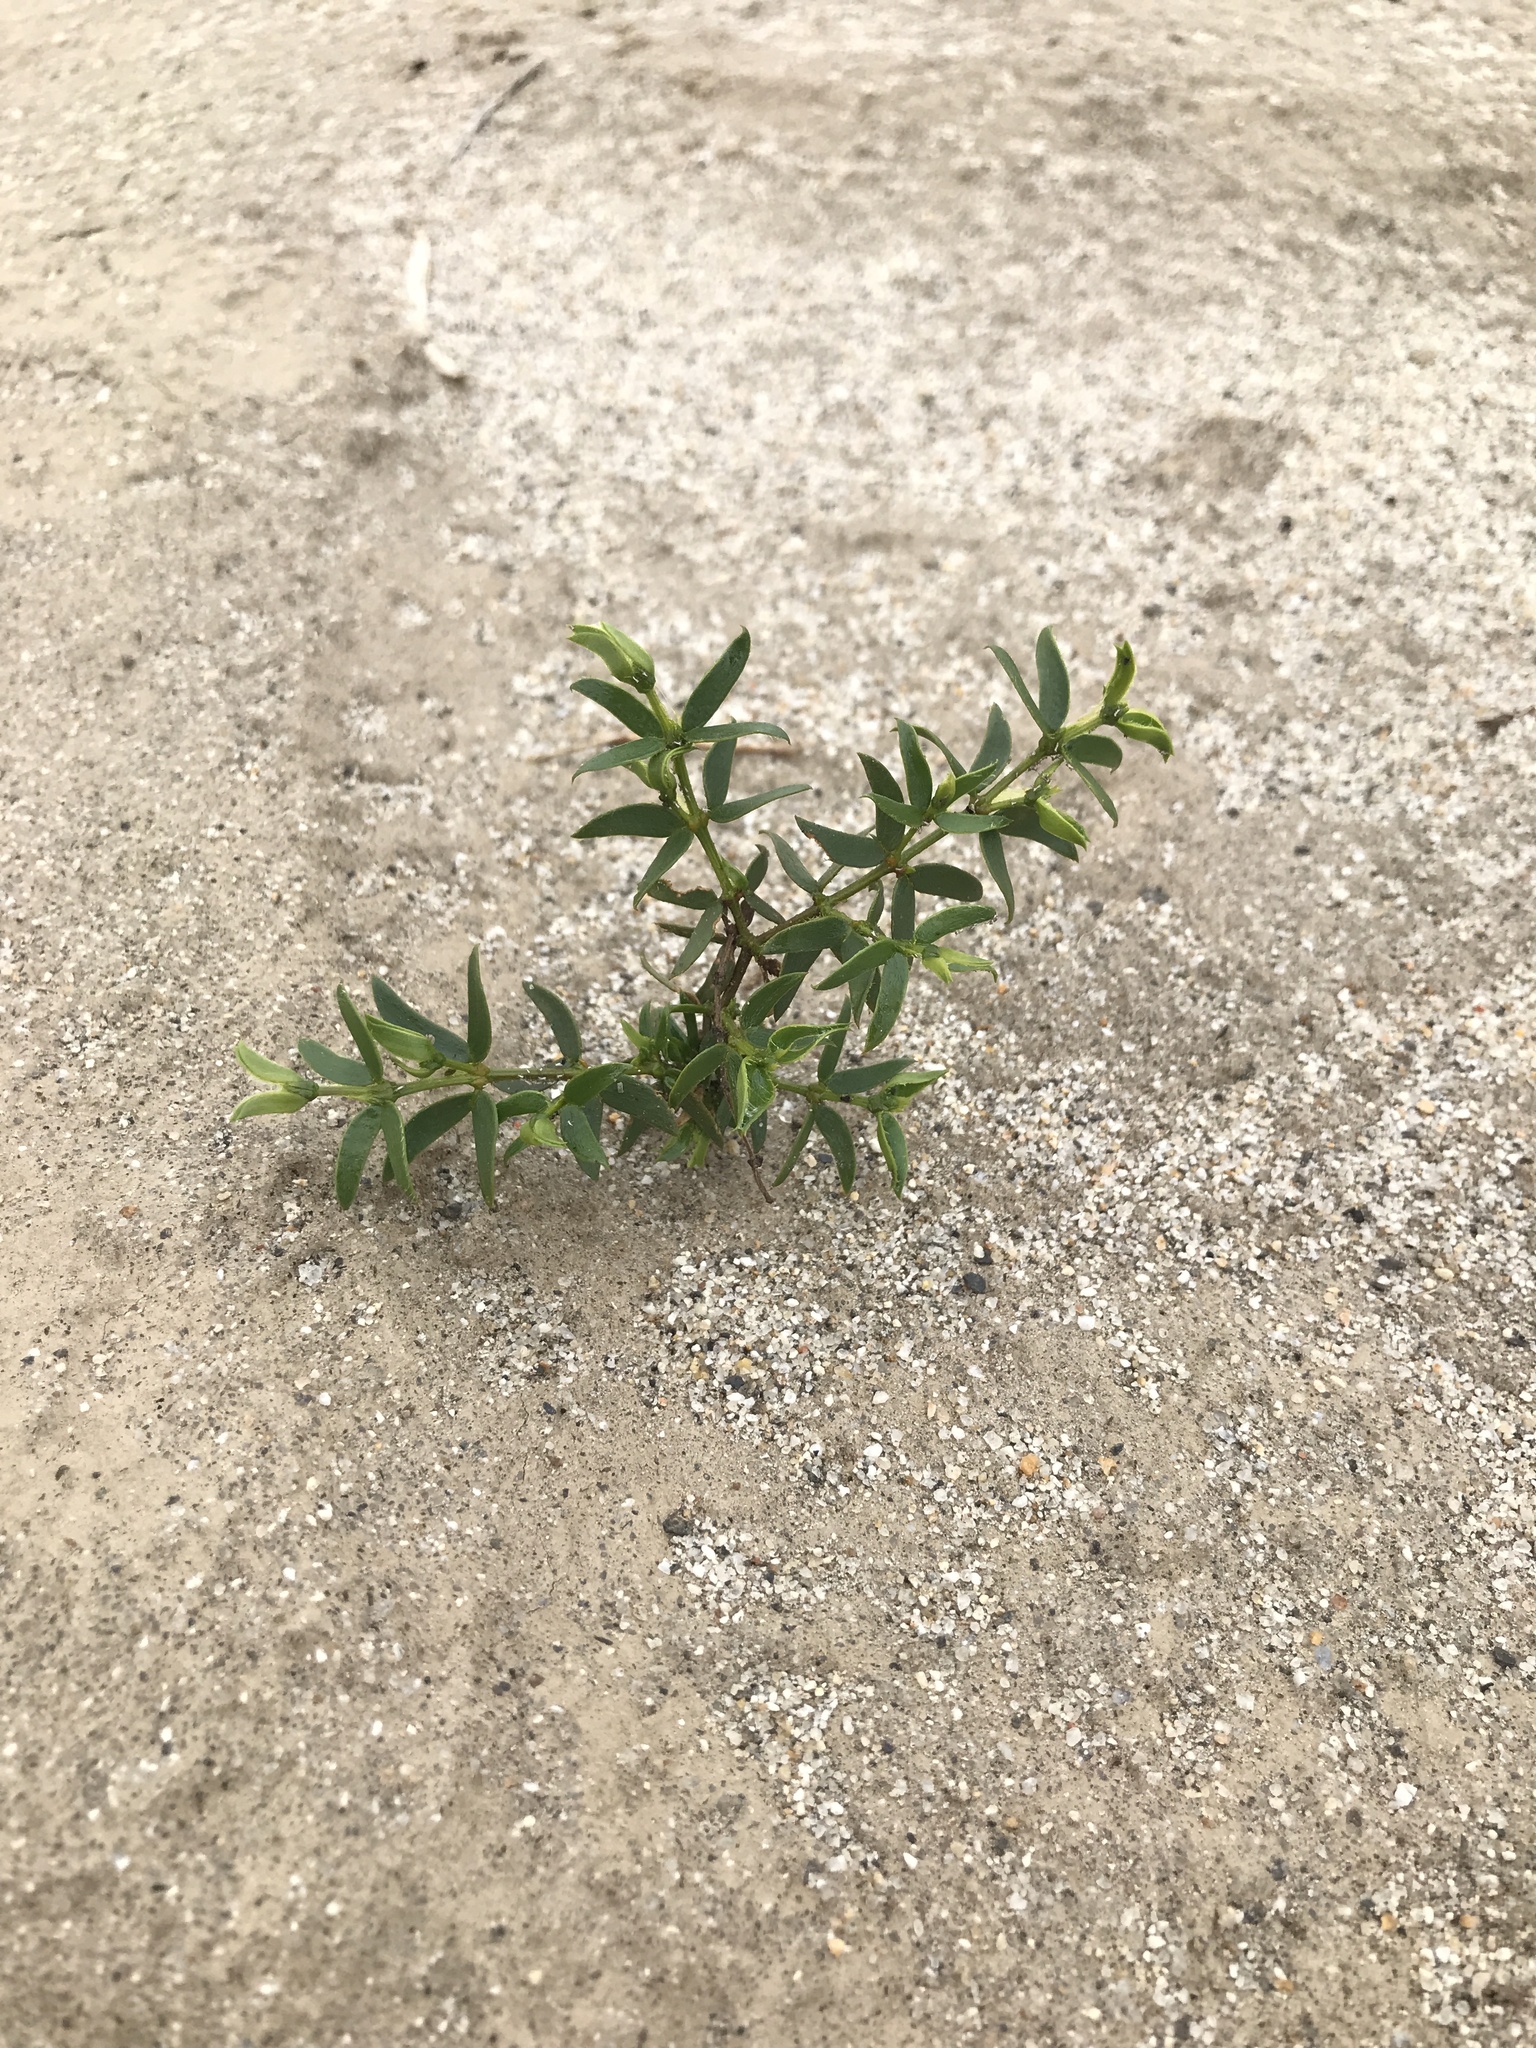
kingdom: Plantae
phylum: Tracheophyta
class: Magnoliopsida
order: Zygophyllales
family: Zygophyllaceae
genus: Larrea
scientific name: Larrea tridentata
